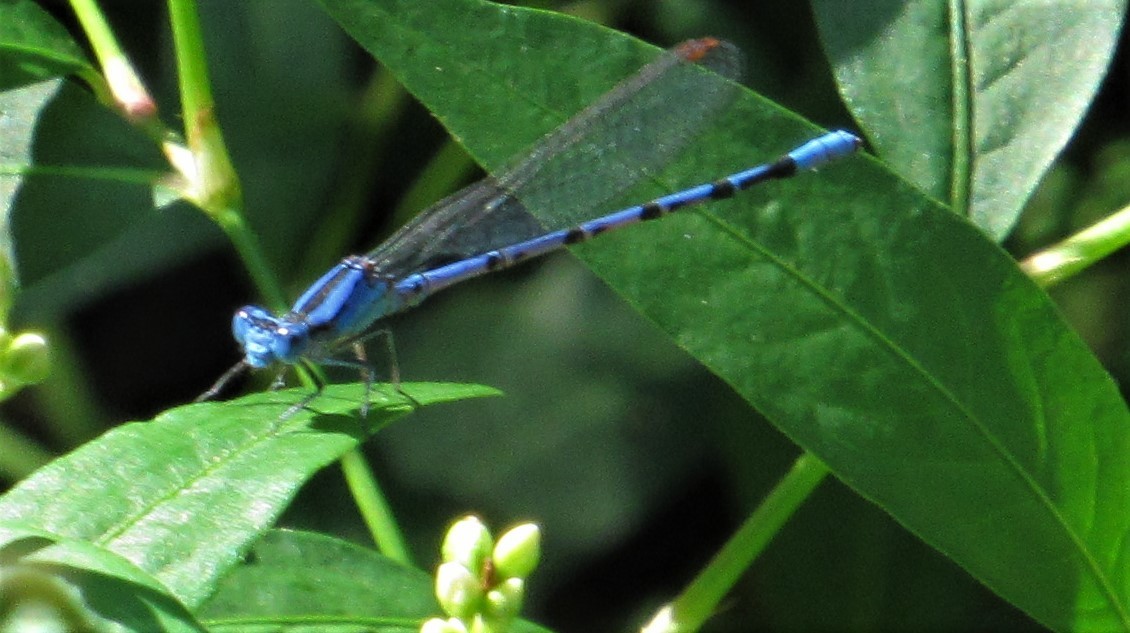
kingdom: Animalia
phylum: Arthropoda
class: Insecta
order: Odonata
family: Coenagrionidae
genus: Argia
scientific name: Argia funebris
